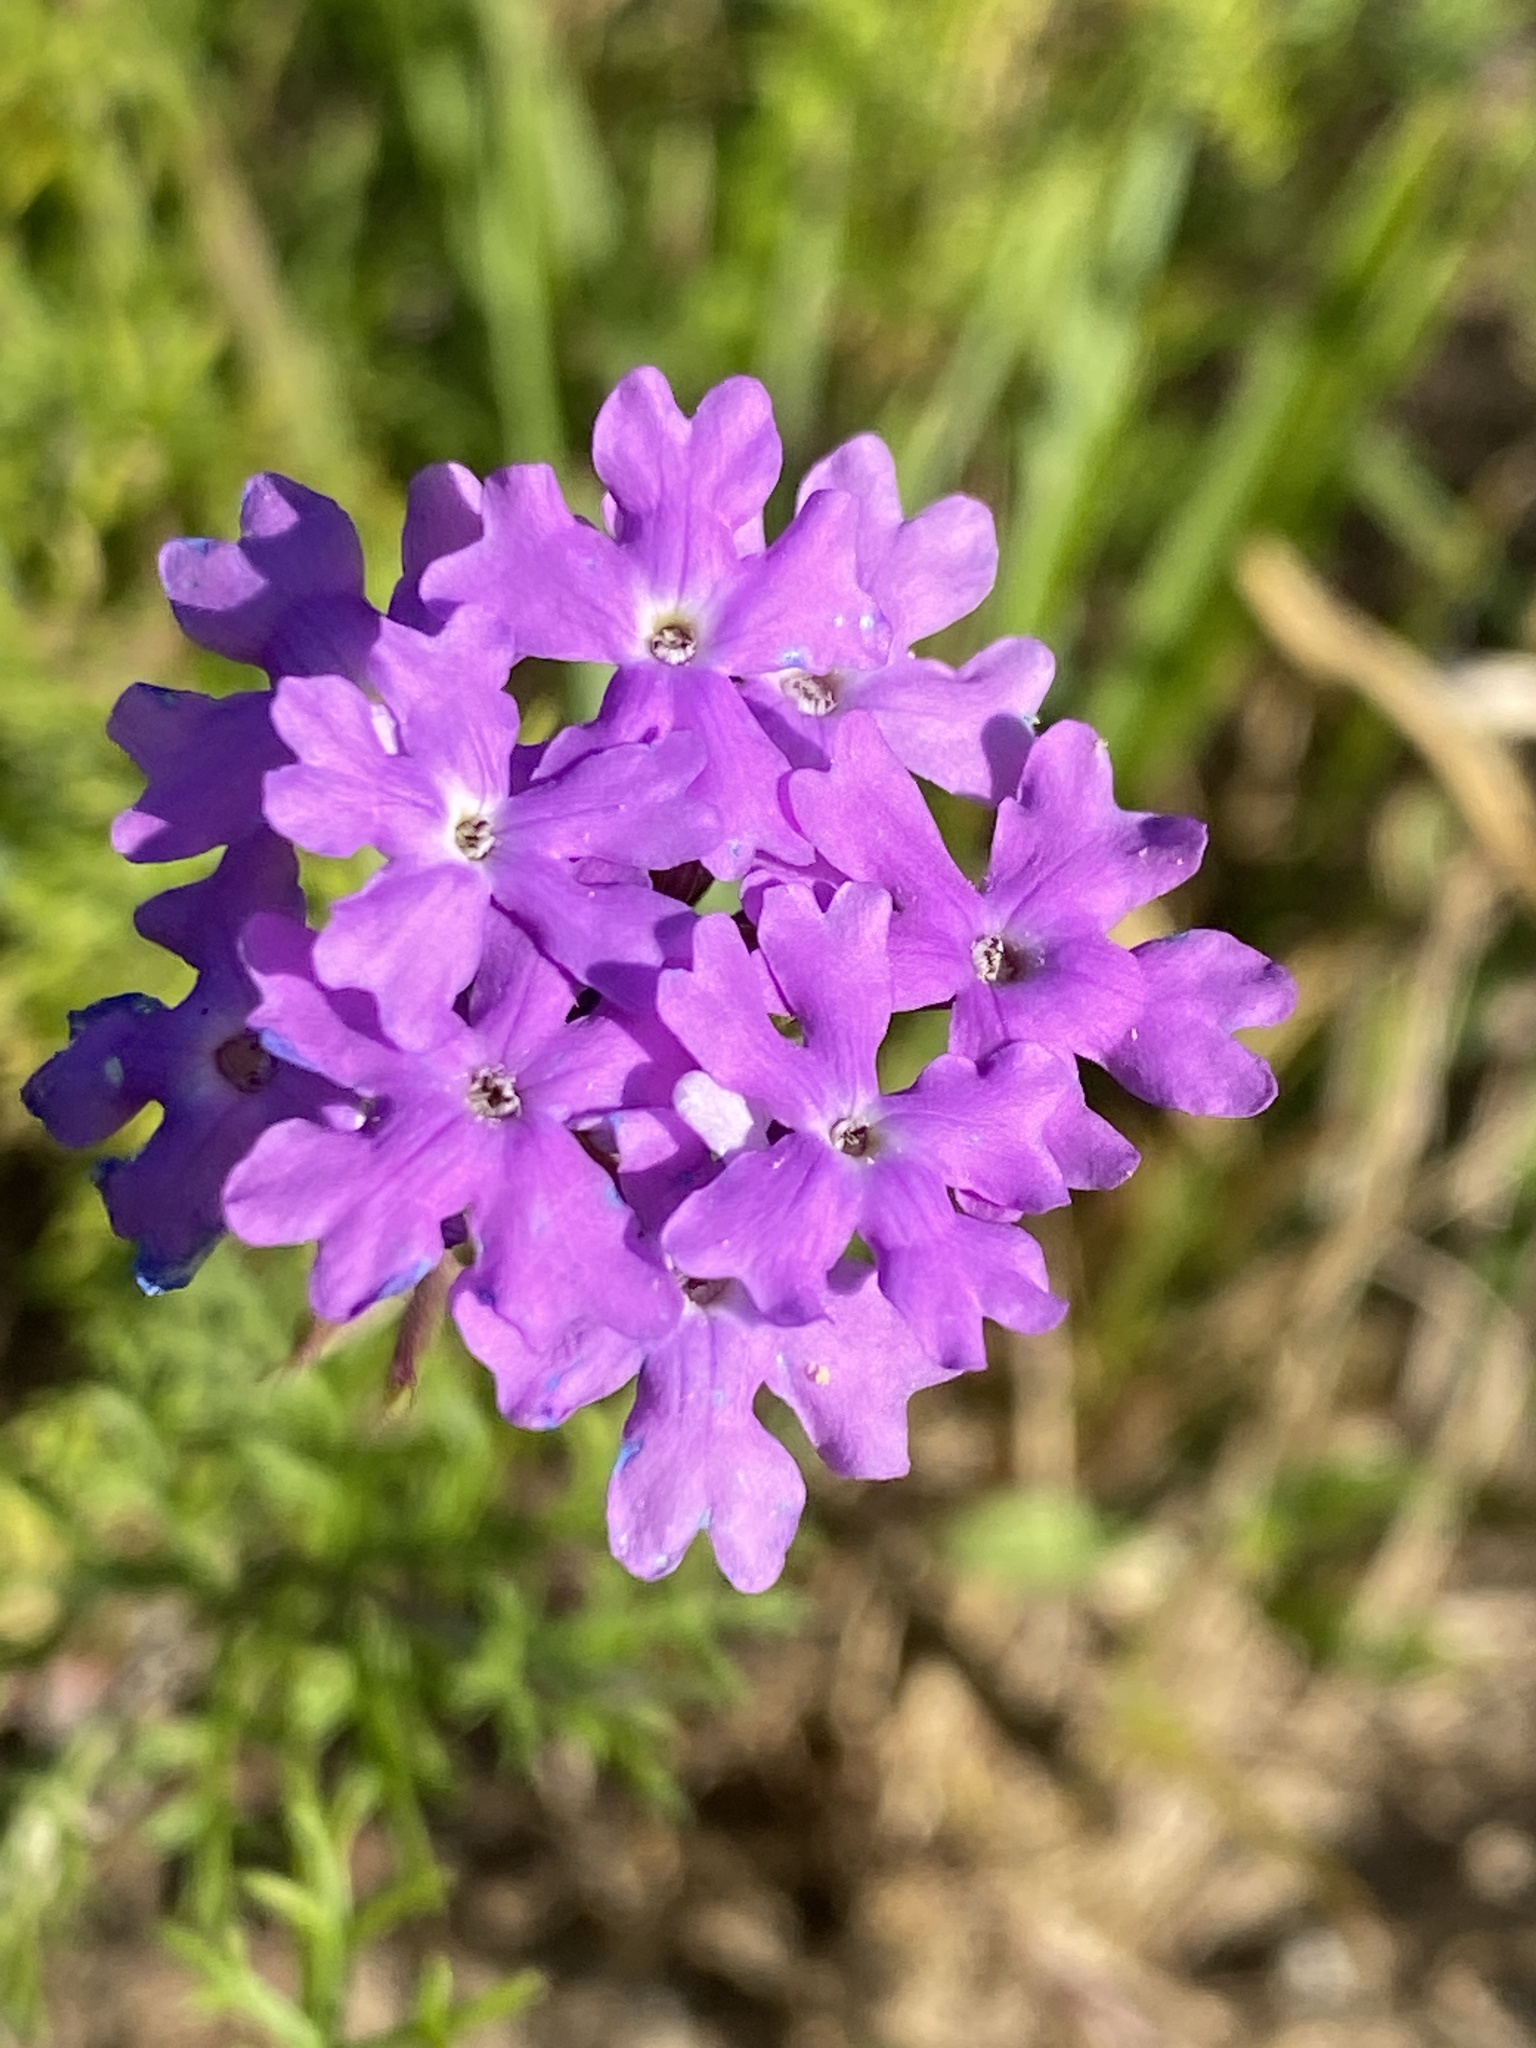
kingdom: Plantae
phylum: Tracheophyta
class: Magnoliopsida
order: Lamiales
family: Verbenaceae
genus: Verbena
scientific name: Verbena aristigera
